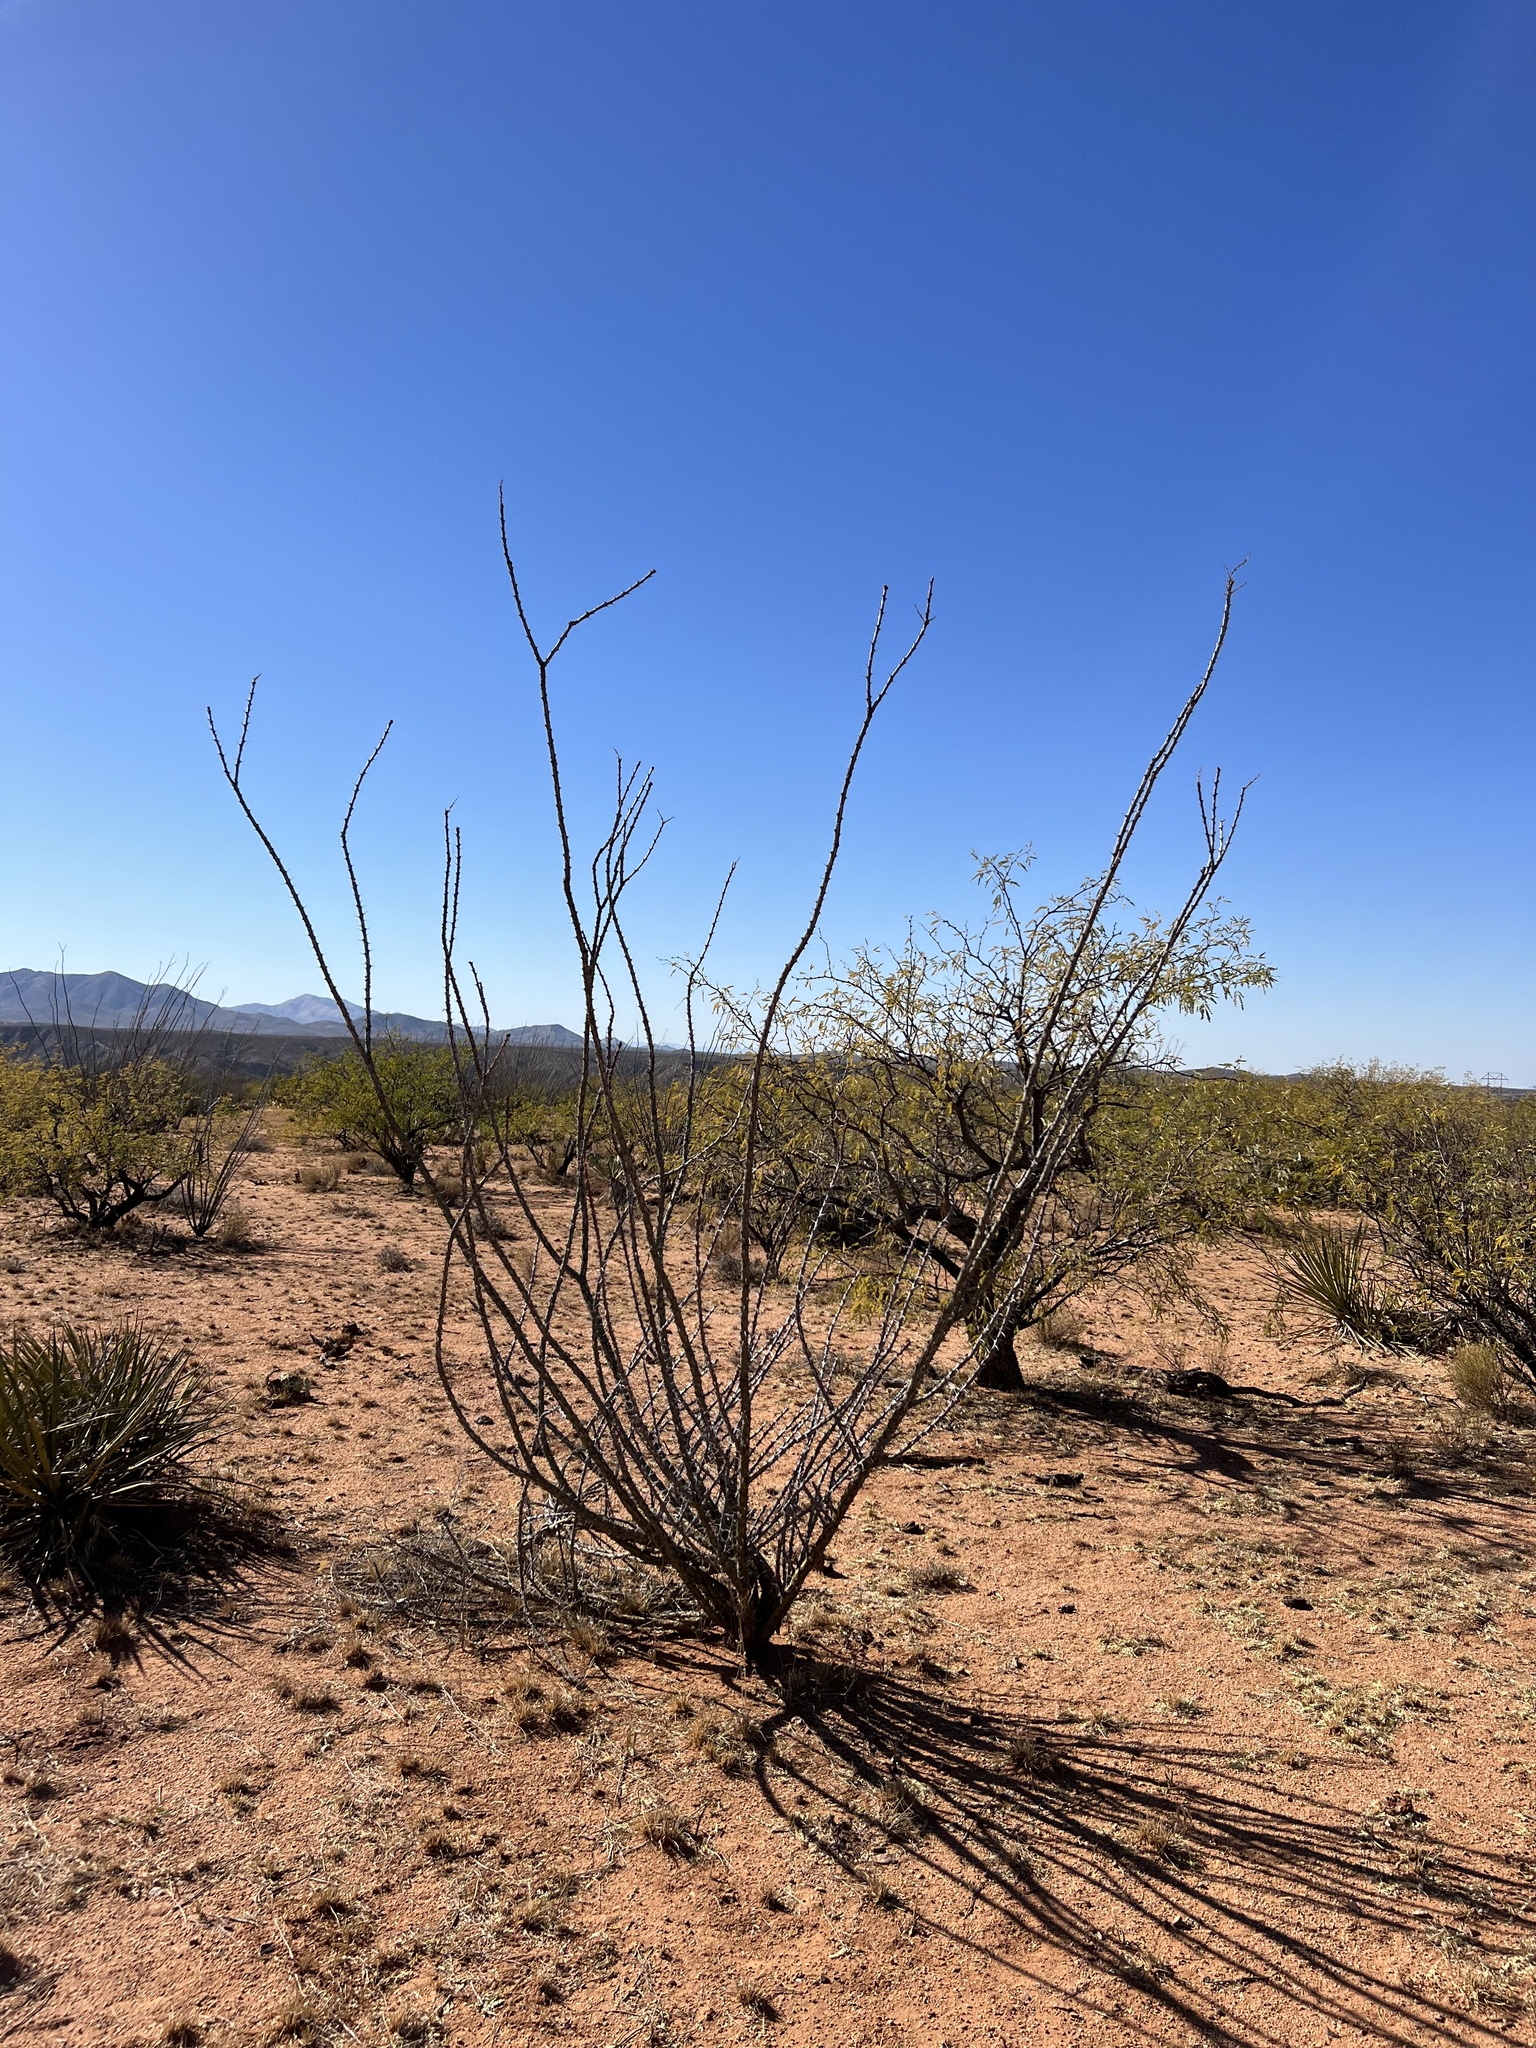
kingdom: Plantae
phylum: Tracheophyta
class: Magnoliopsida
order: Ericales
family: Fouquieriaceae
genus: Fouquieria
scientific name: Fouquieria splendens
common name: Vine-cactus
